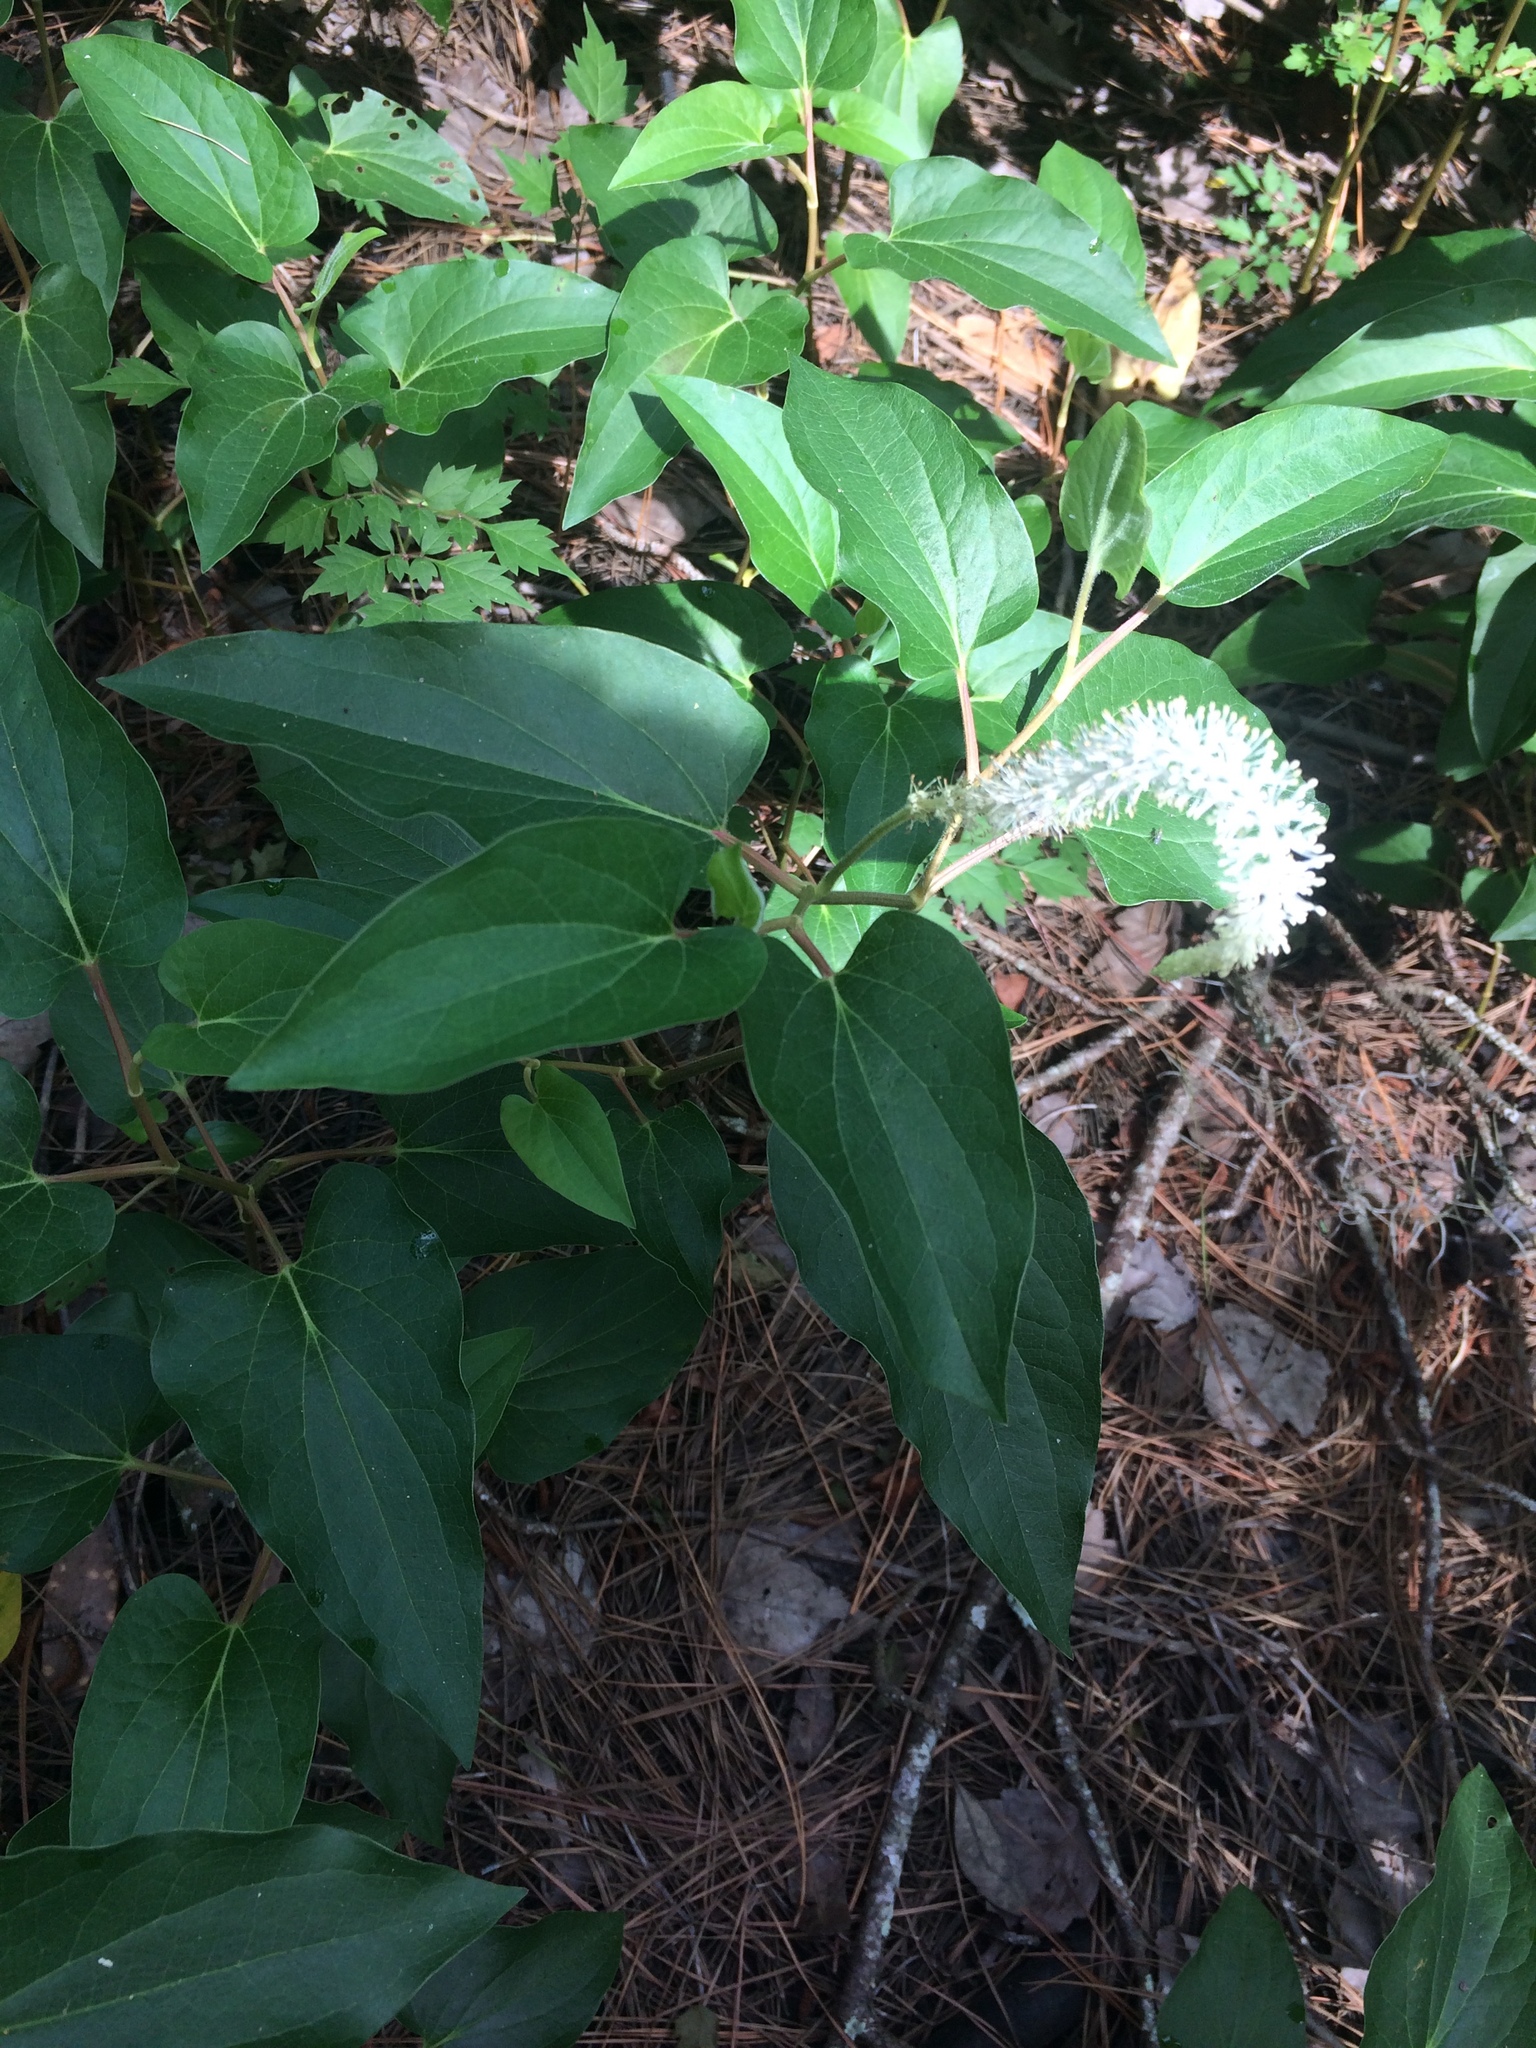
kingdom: Plantae
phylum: Tracheophyta
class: Magnoliopsida
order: Piperales
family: Saururaceae
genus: Saururus
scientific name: Saururus cernuus
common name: Lizard's-tail
